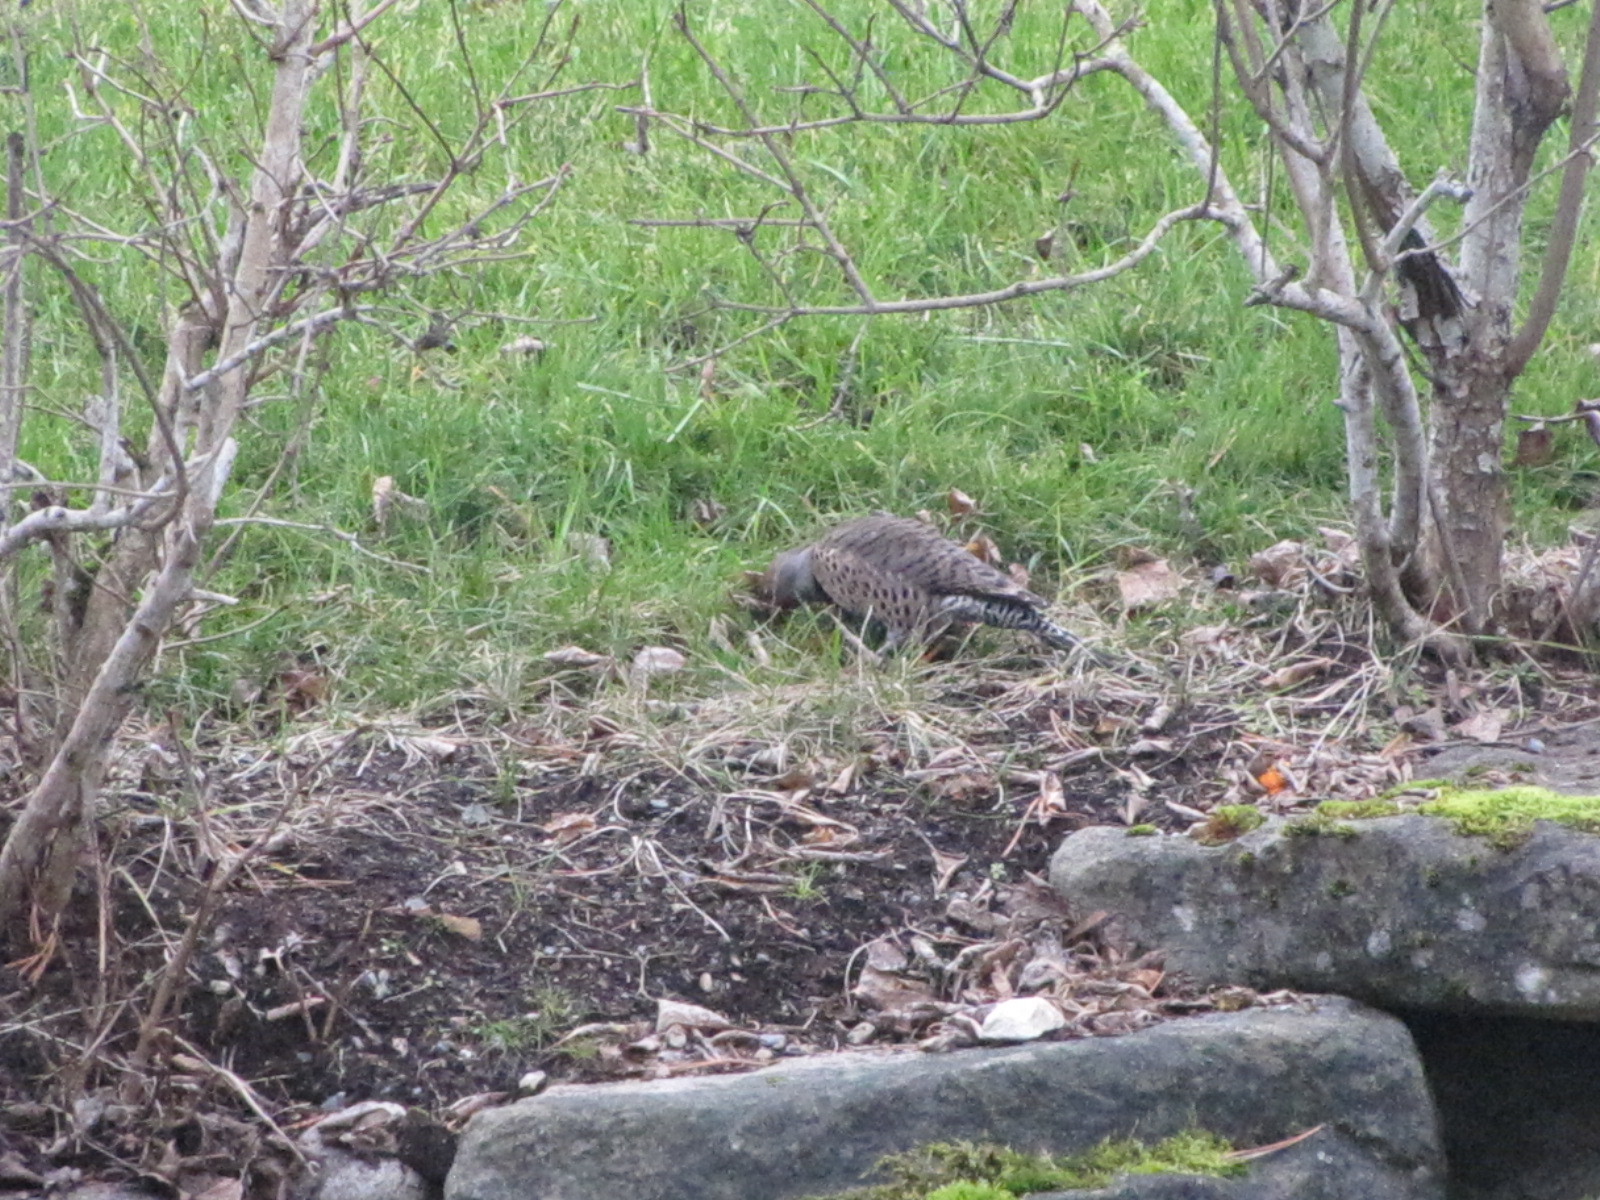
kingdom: Animalia
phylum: Chordata
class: Aves
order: Piciformes
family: Picidae
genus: Colaptes
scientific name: Colaptes auratus
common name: Northern flicker
